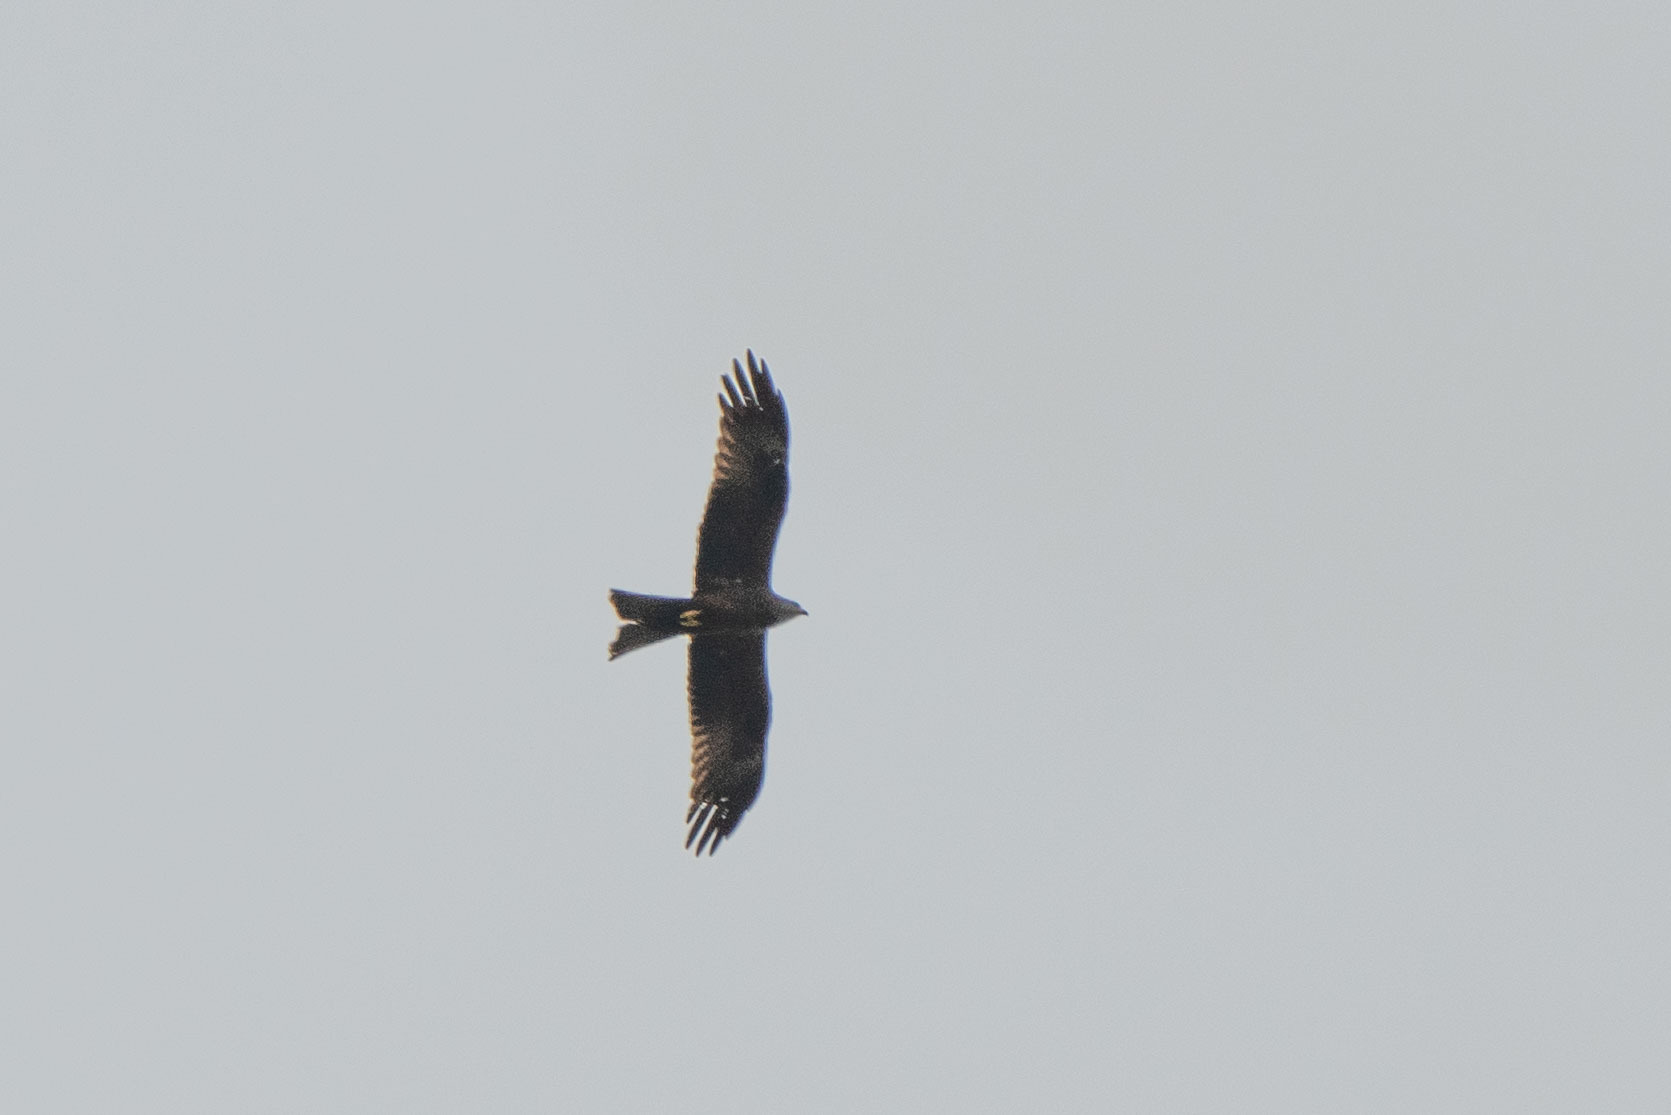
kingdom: Animalia
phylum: Chordata
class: Aves
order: Accipitriformes
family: Accipitridae
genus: Milvus
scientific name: Milvus migrans
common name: Black kite
